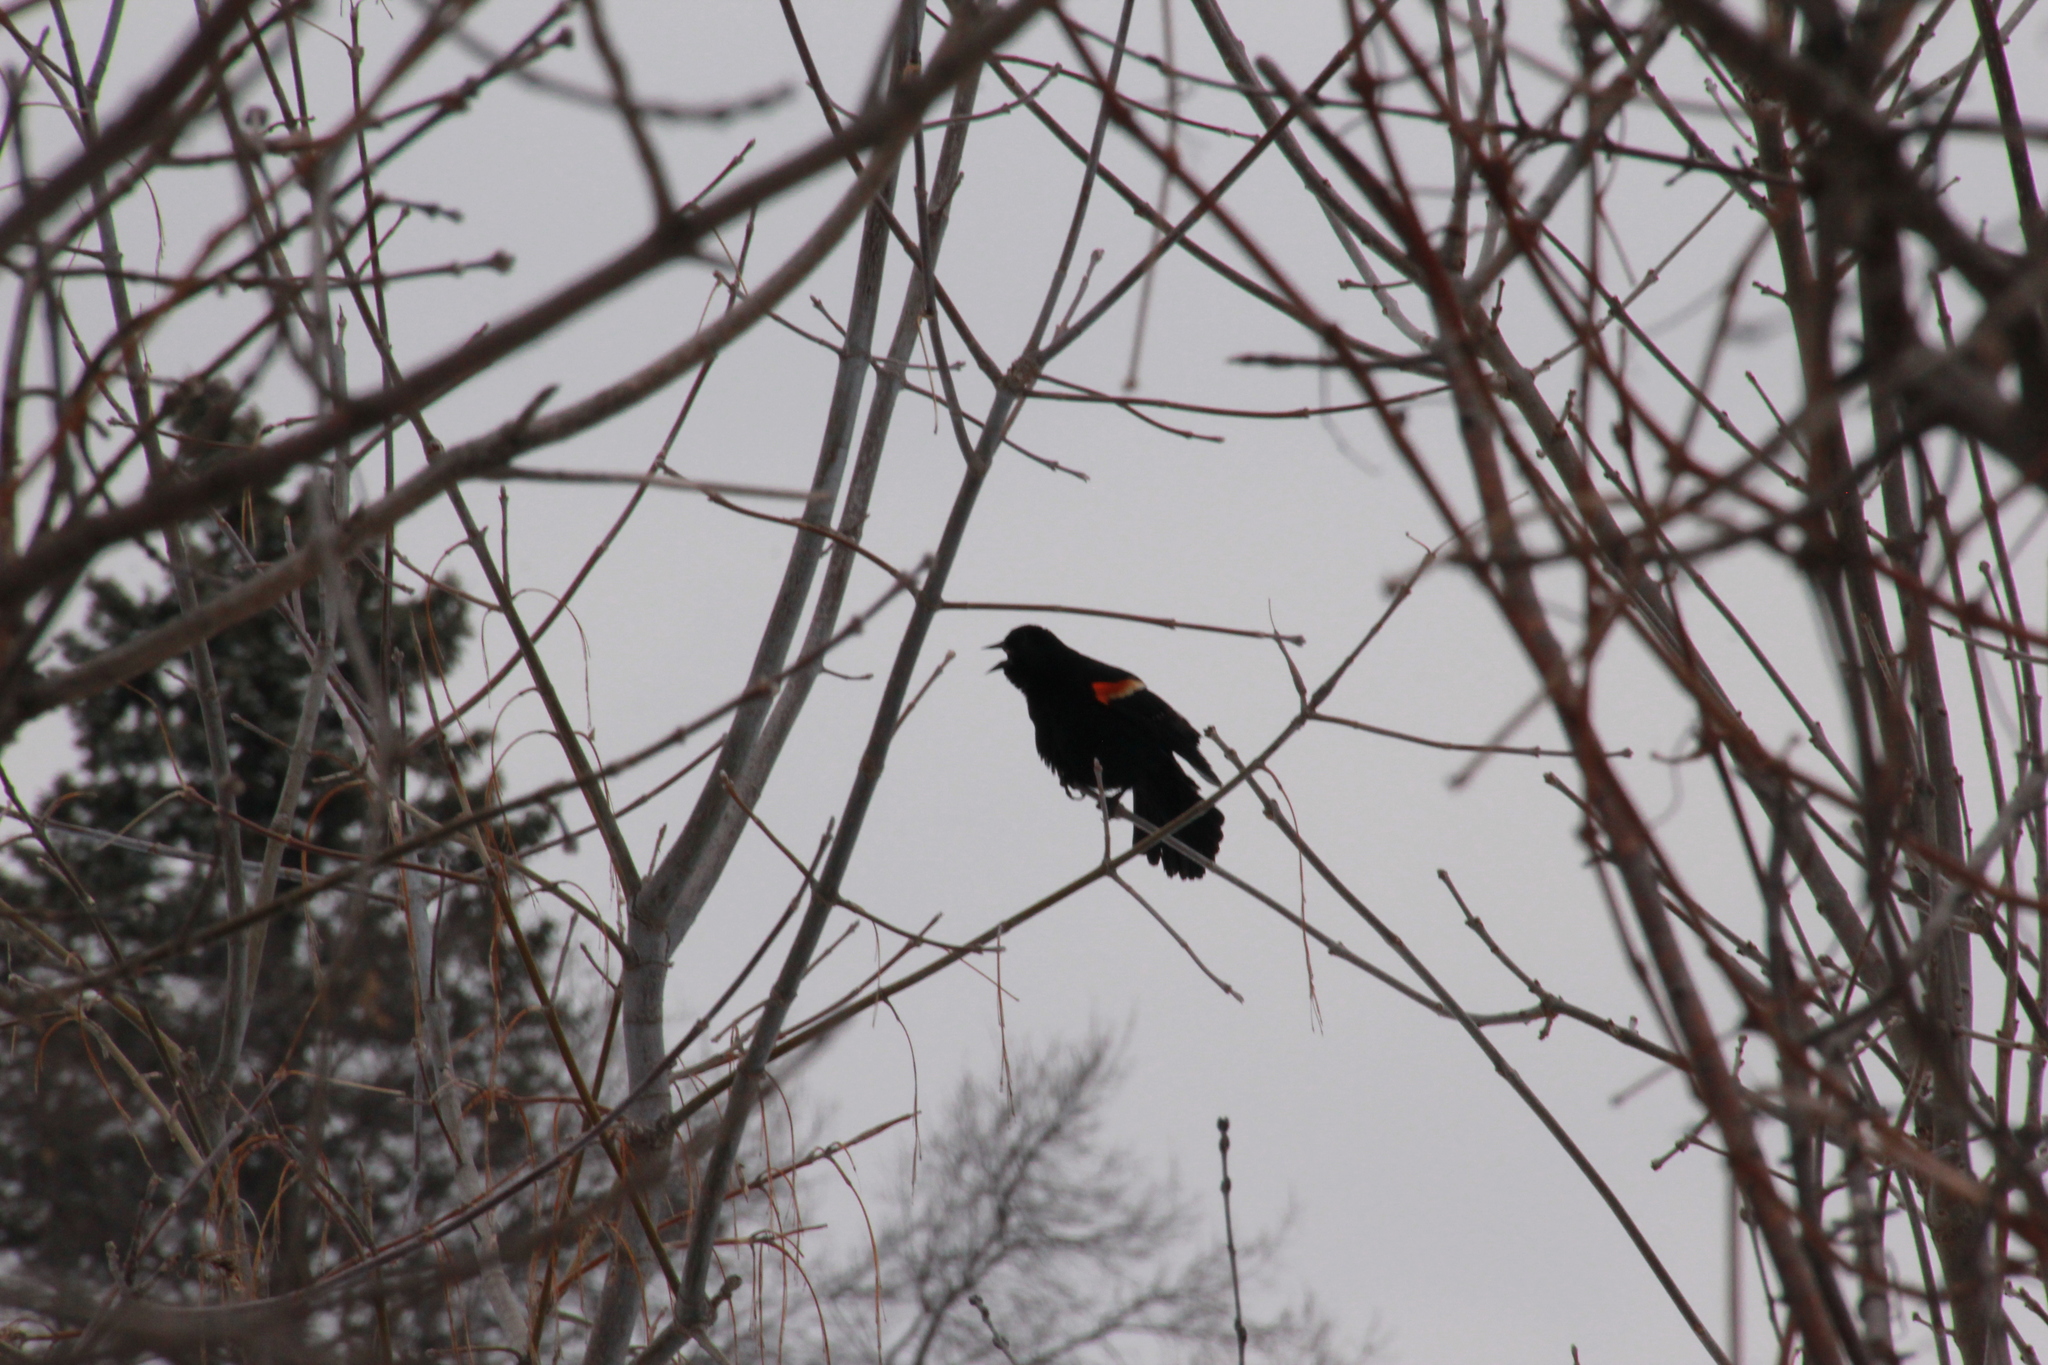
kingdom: Animalia
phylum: Chordata
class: Aves
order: Passeriformes
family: Icteridae
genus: Agelaius
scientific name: Agelaius phoeniceus
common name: Red-winged blackbird
